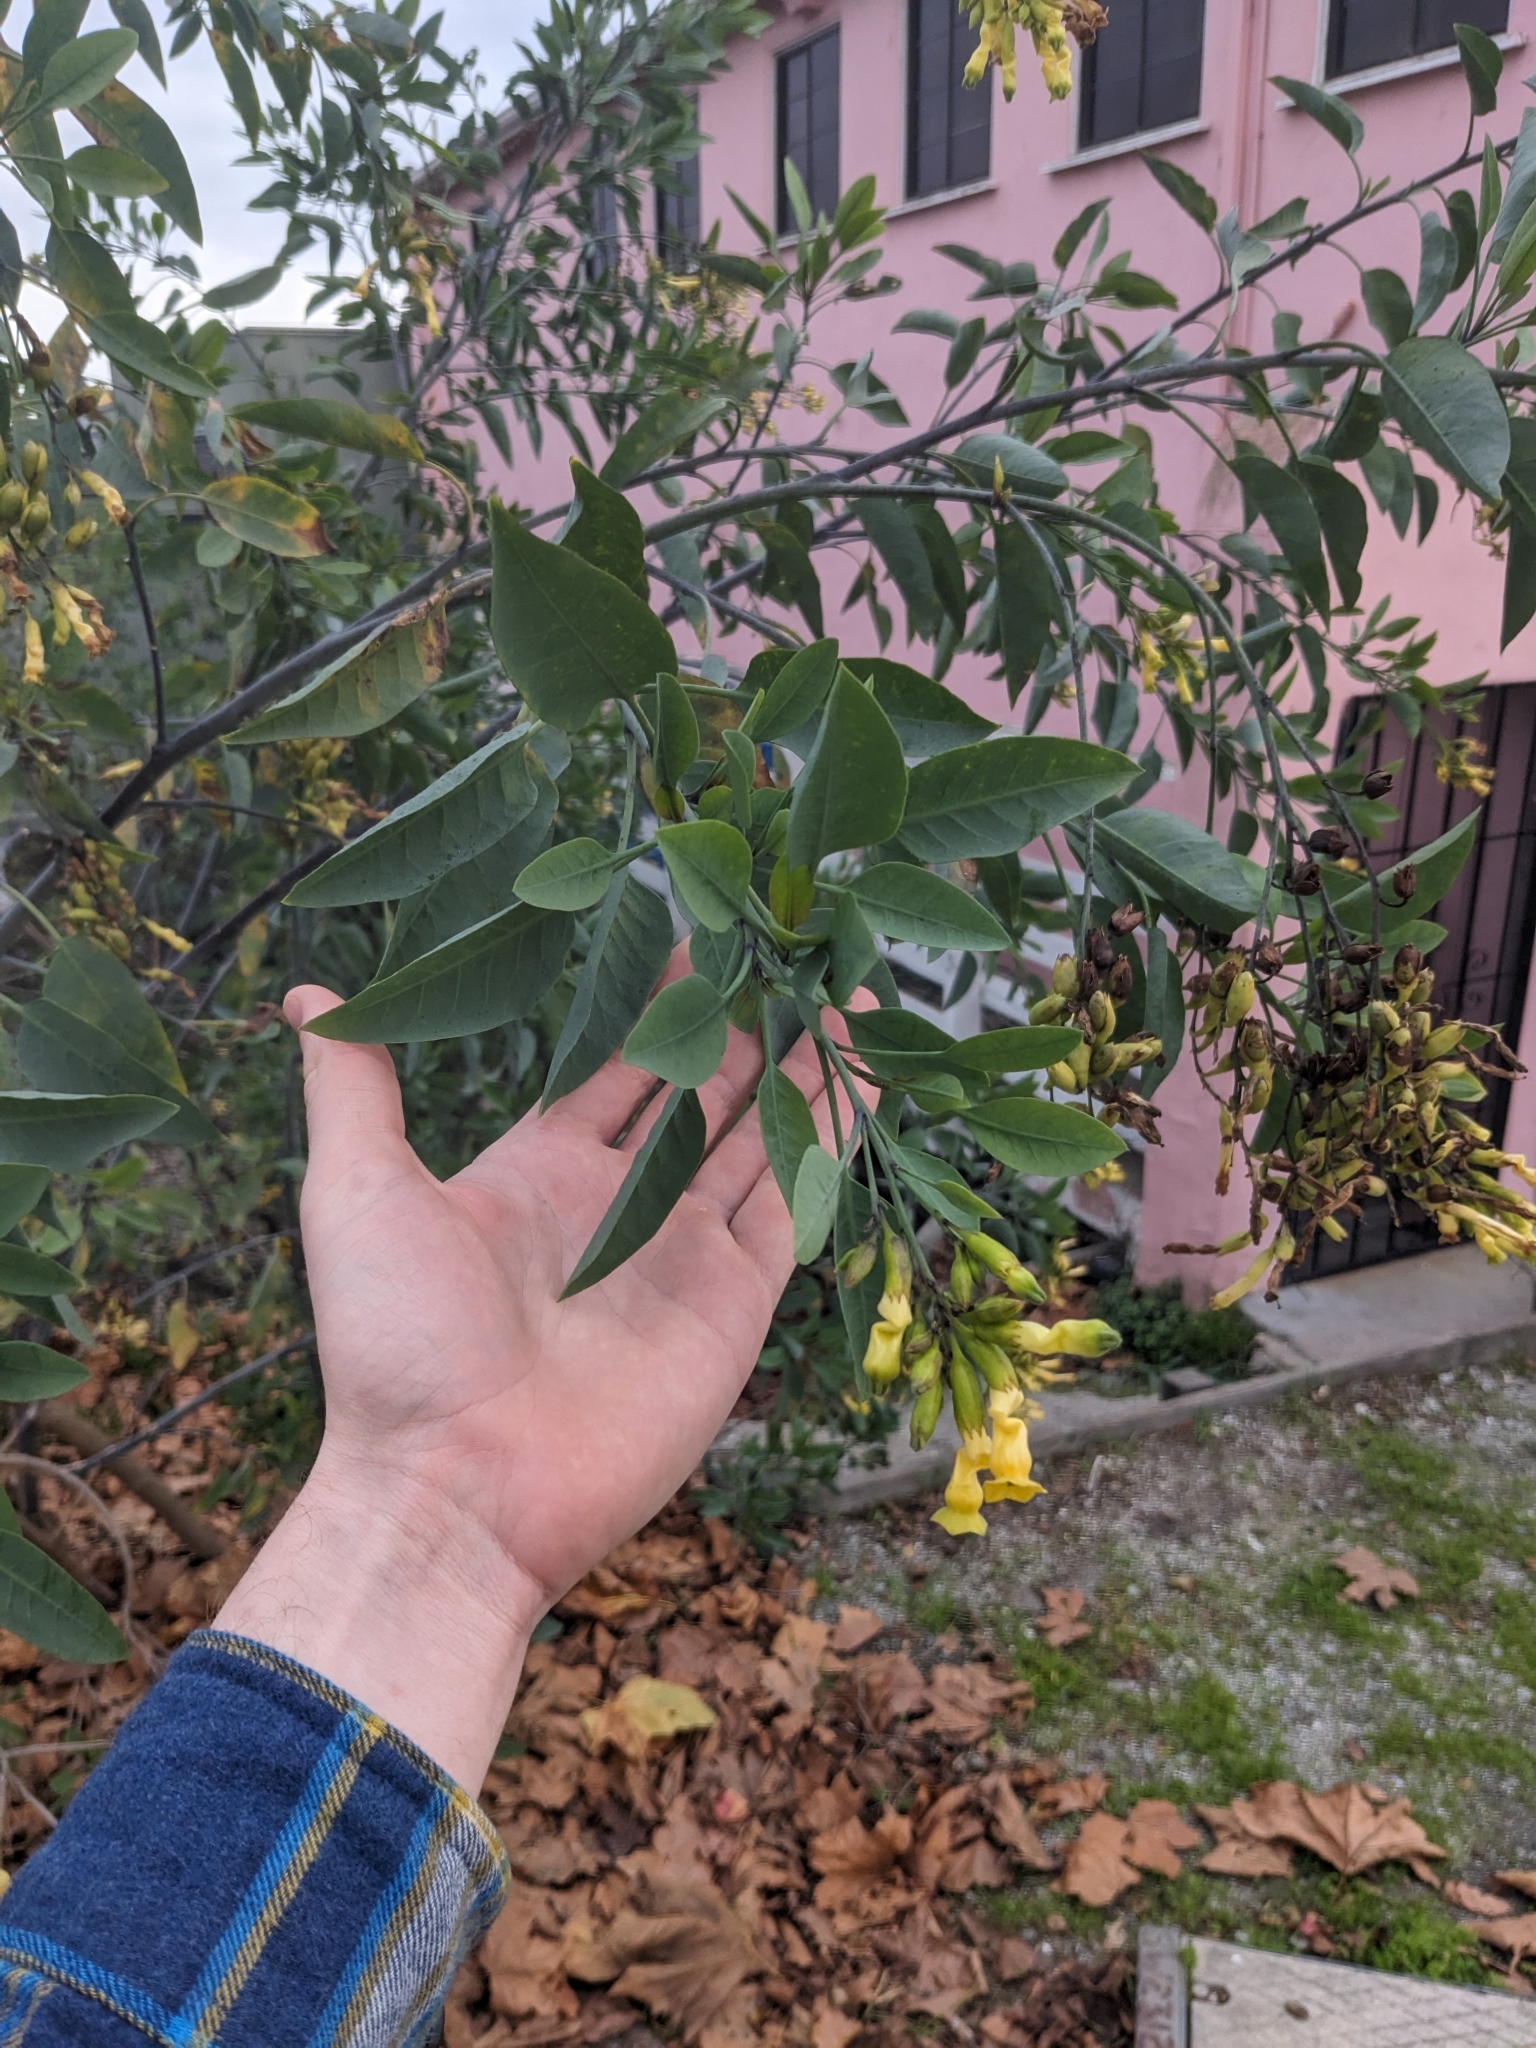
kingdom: Plantae
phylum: Tracheophyta
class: Magnoliopsida
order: Solanales
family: Solanaceae
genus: Nicotiana
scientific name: Nicotiana glauca
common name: Tree tobacco
